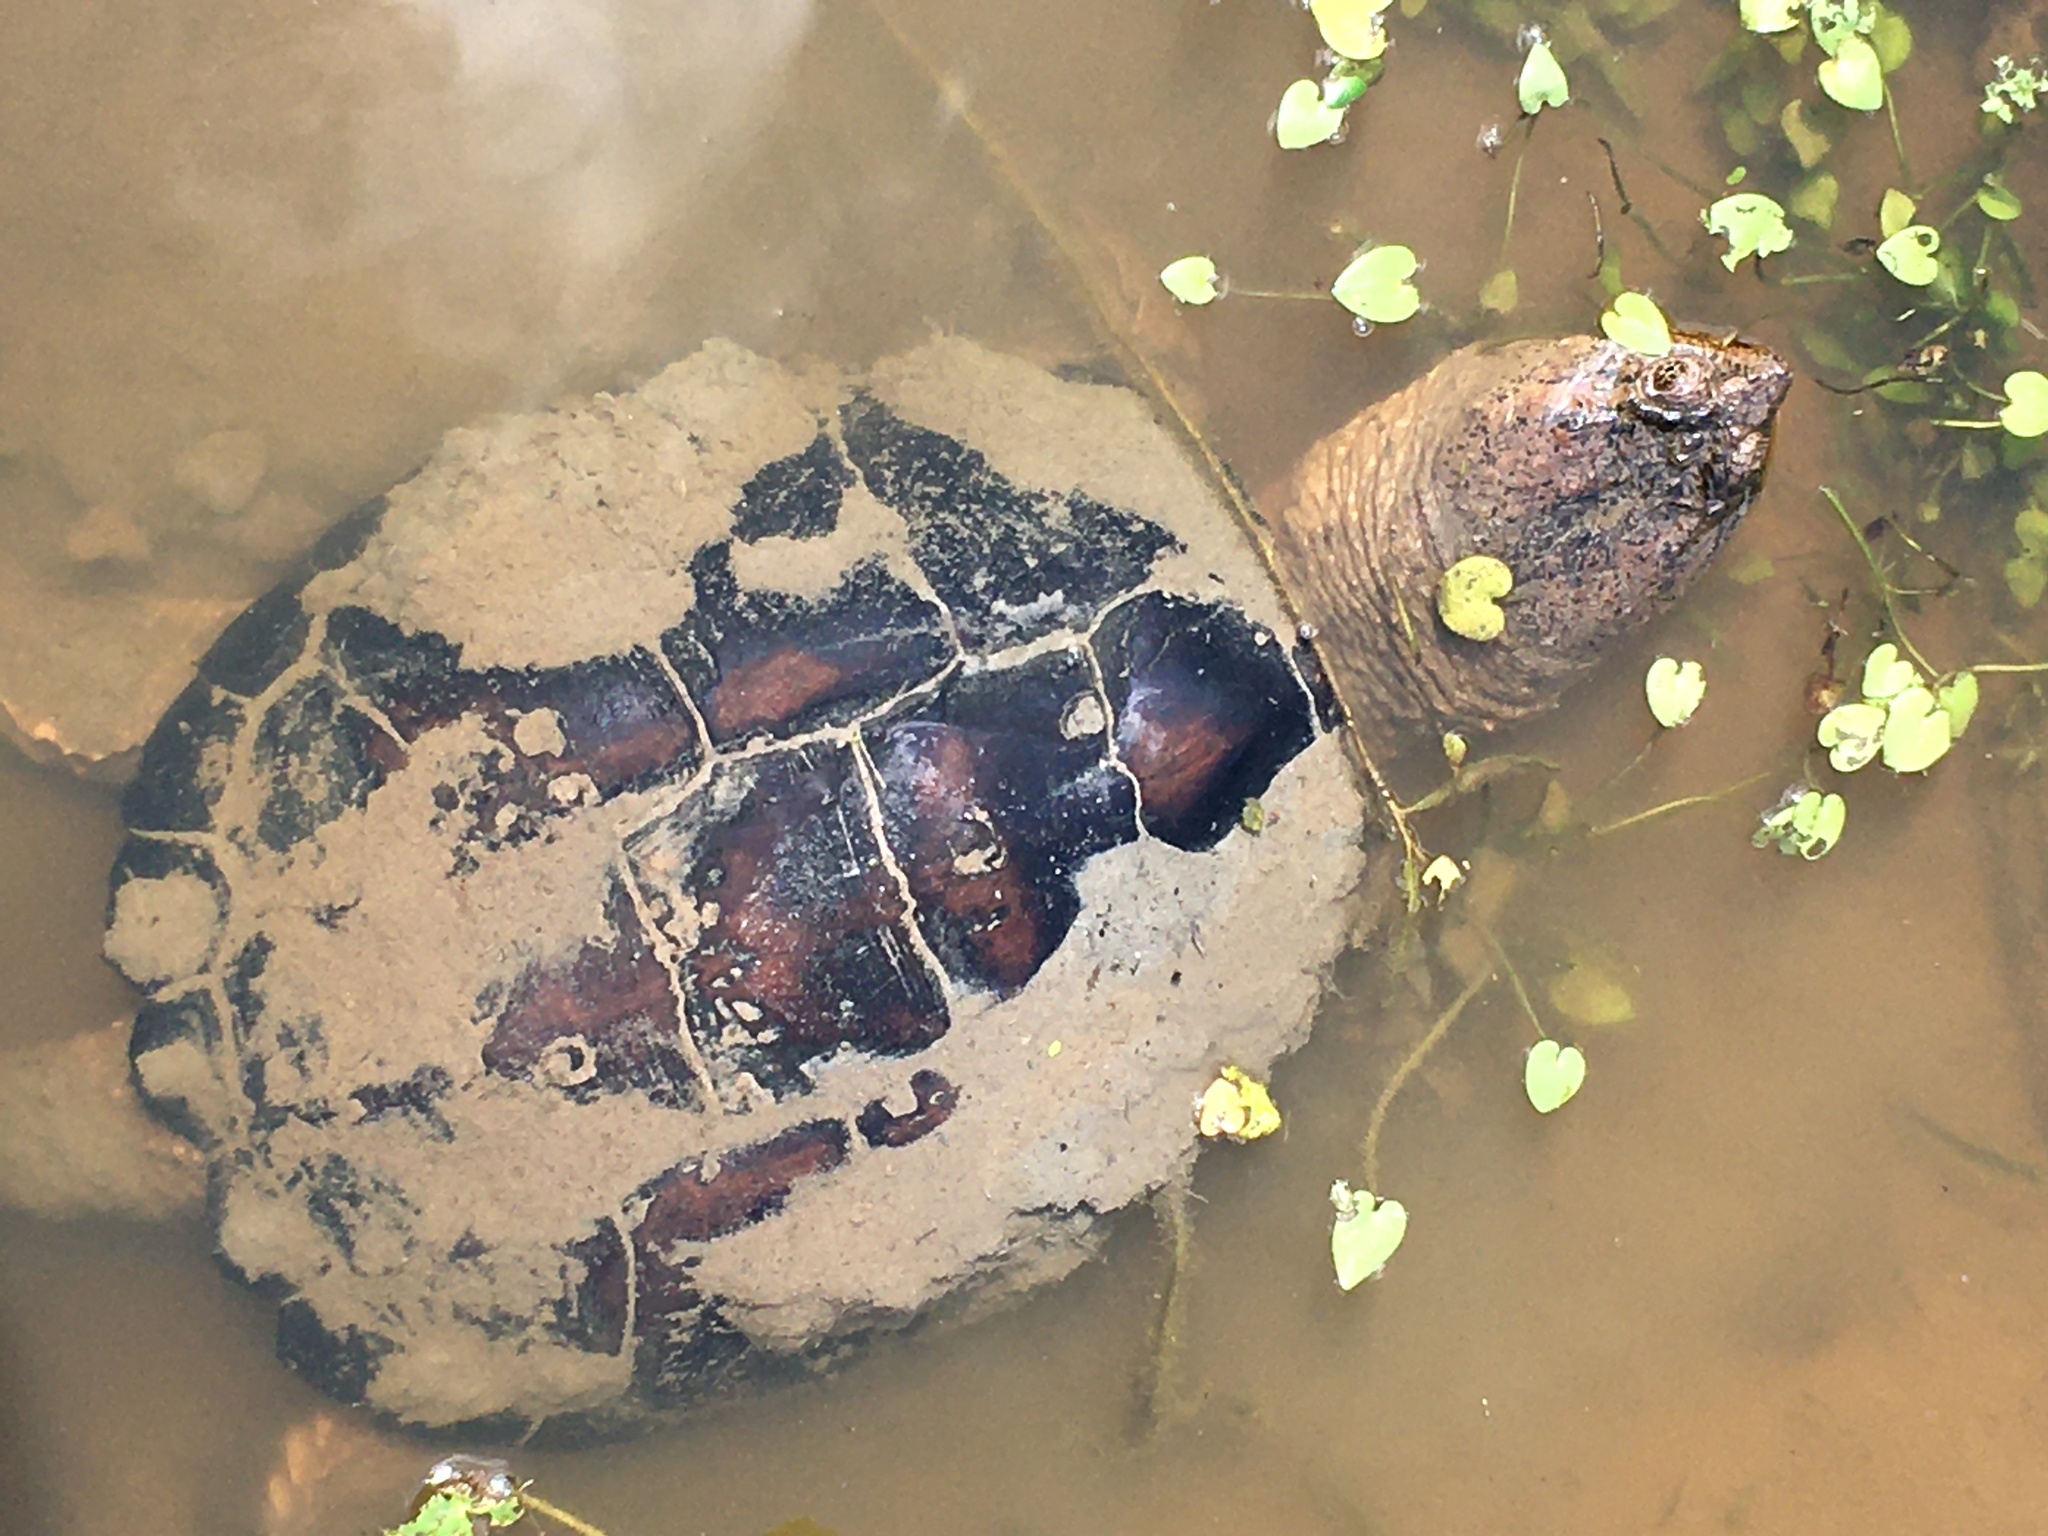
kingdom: Animalia
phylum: Chordata
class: Testudines
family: Chelydridae
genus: Chelydra
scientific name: Chelydra serpentina
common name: Common snapping turtle
